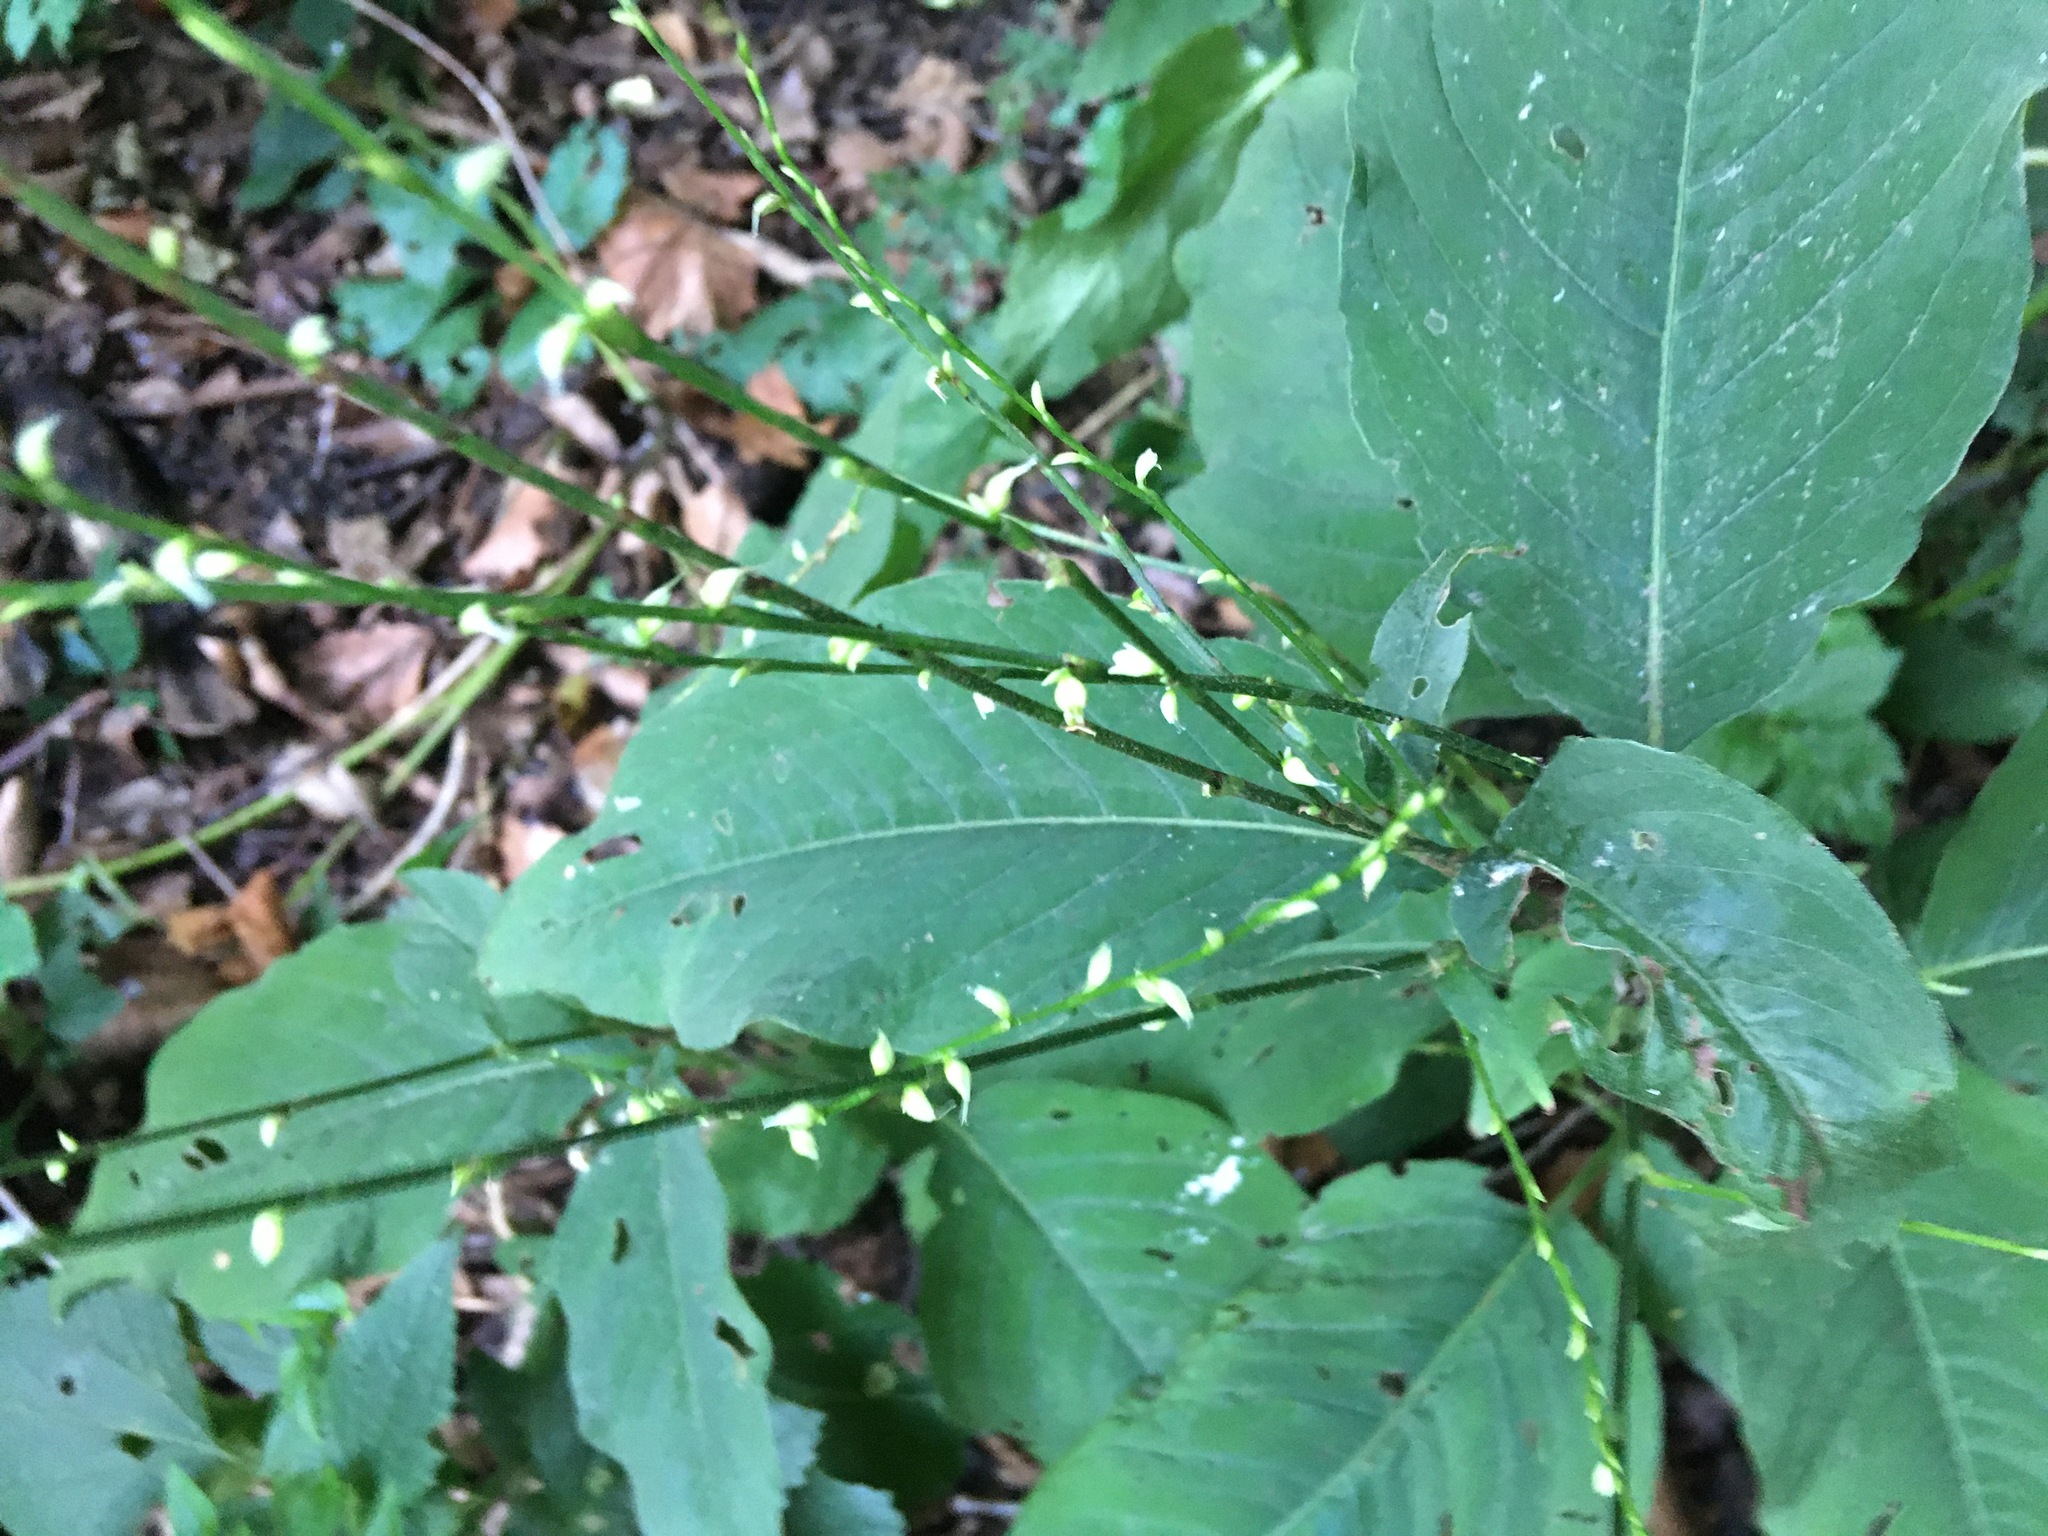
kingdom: Plantae
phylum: Tracheophyta
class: Magnoliopsida
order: Caryophyllales
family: Polygonaceae
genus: Persicaria
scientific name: Persicaria virginiana
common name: Jumpseed
